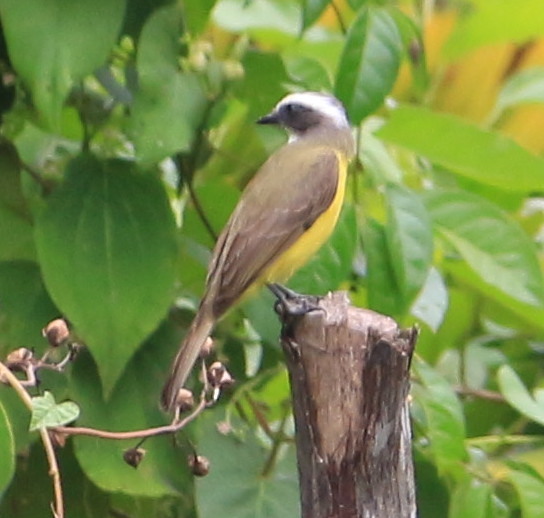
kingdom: Animalia
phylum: Chordata
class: Aves
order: Passeriformes
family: Tyrannidae
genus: Myiozetetes
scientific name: Myiozetetes similis
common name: Social flycatcher
